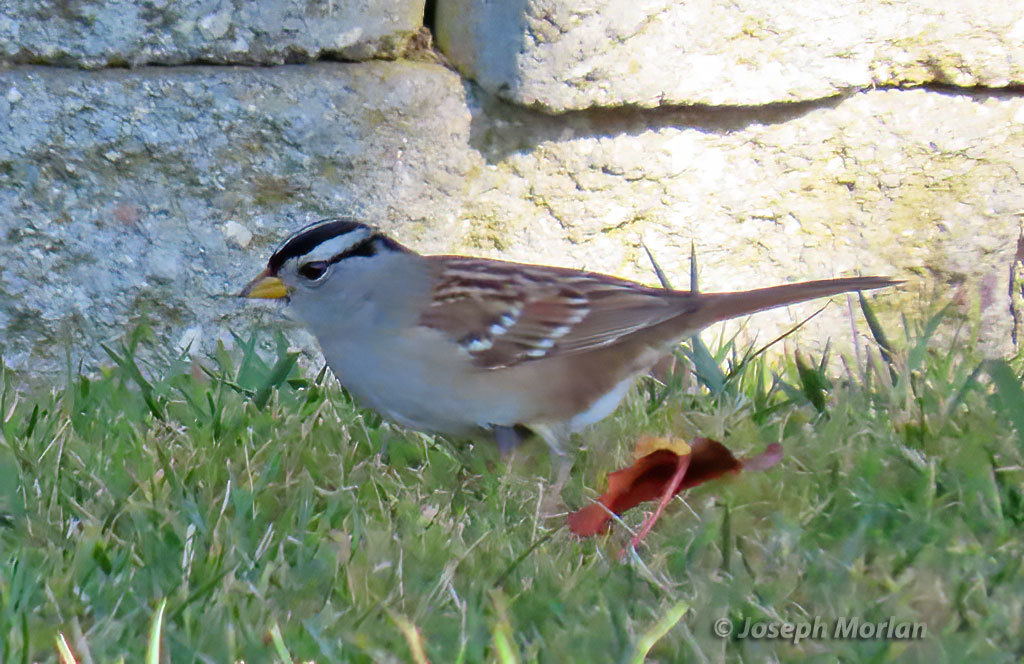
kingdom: Animalia
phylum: Chordata
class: Aves
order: Passeriformes
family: Passerellidae
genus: Zonotrichia
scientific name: Zonotrichia leucophrys
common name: White-crowned sparrow
